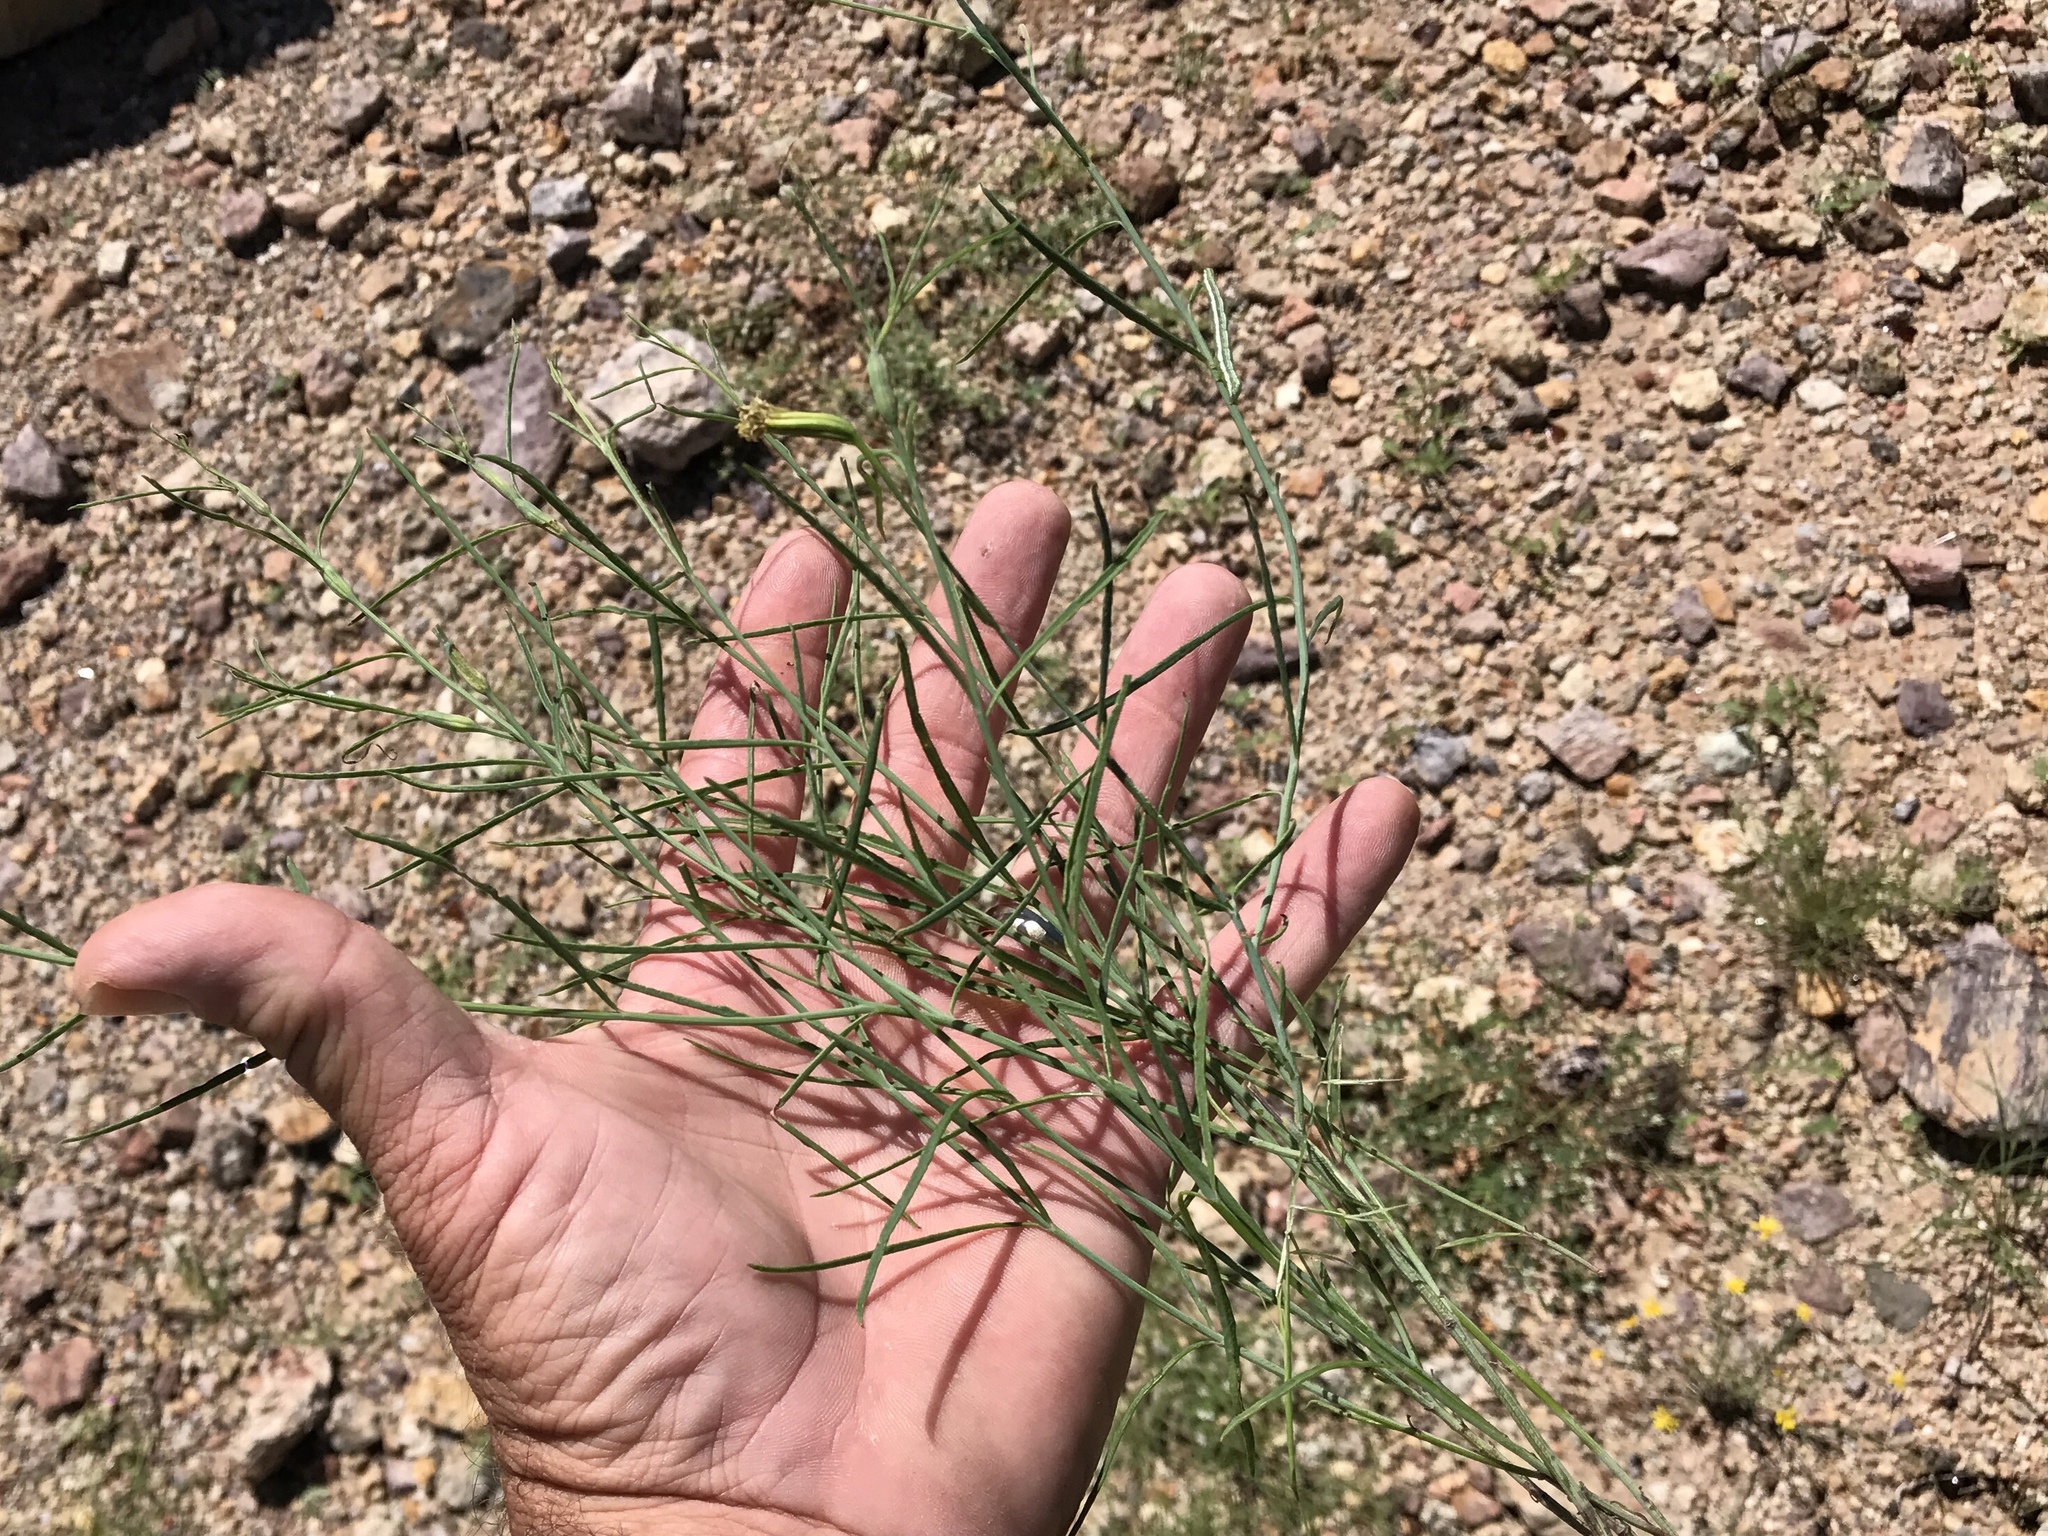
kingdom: Plantae
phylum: Tracheophyta
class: Magnoliopsida
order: Asterales
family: Asteraceae
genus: Porophyllum
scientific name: Porophyllum gracile
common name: Odora
